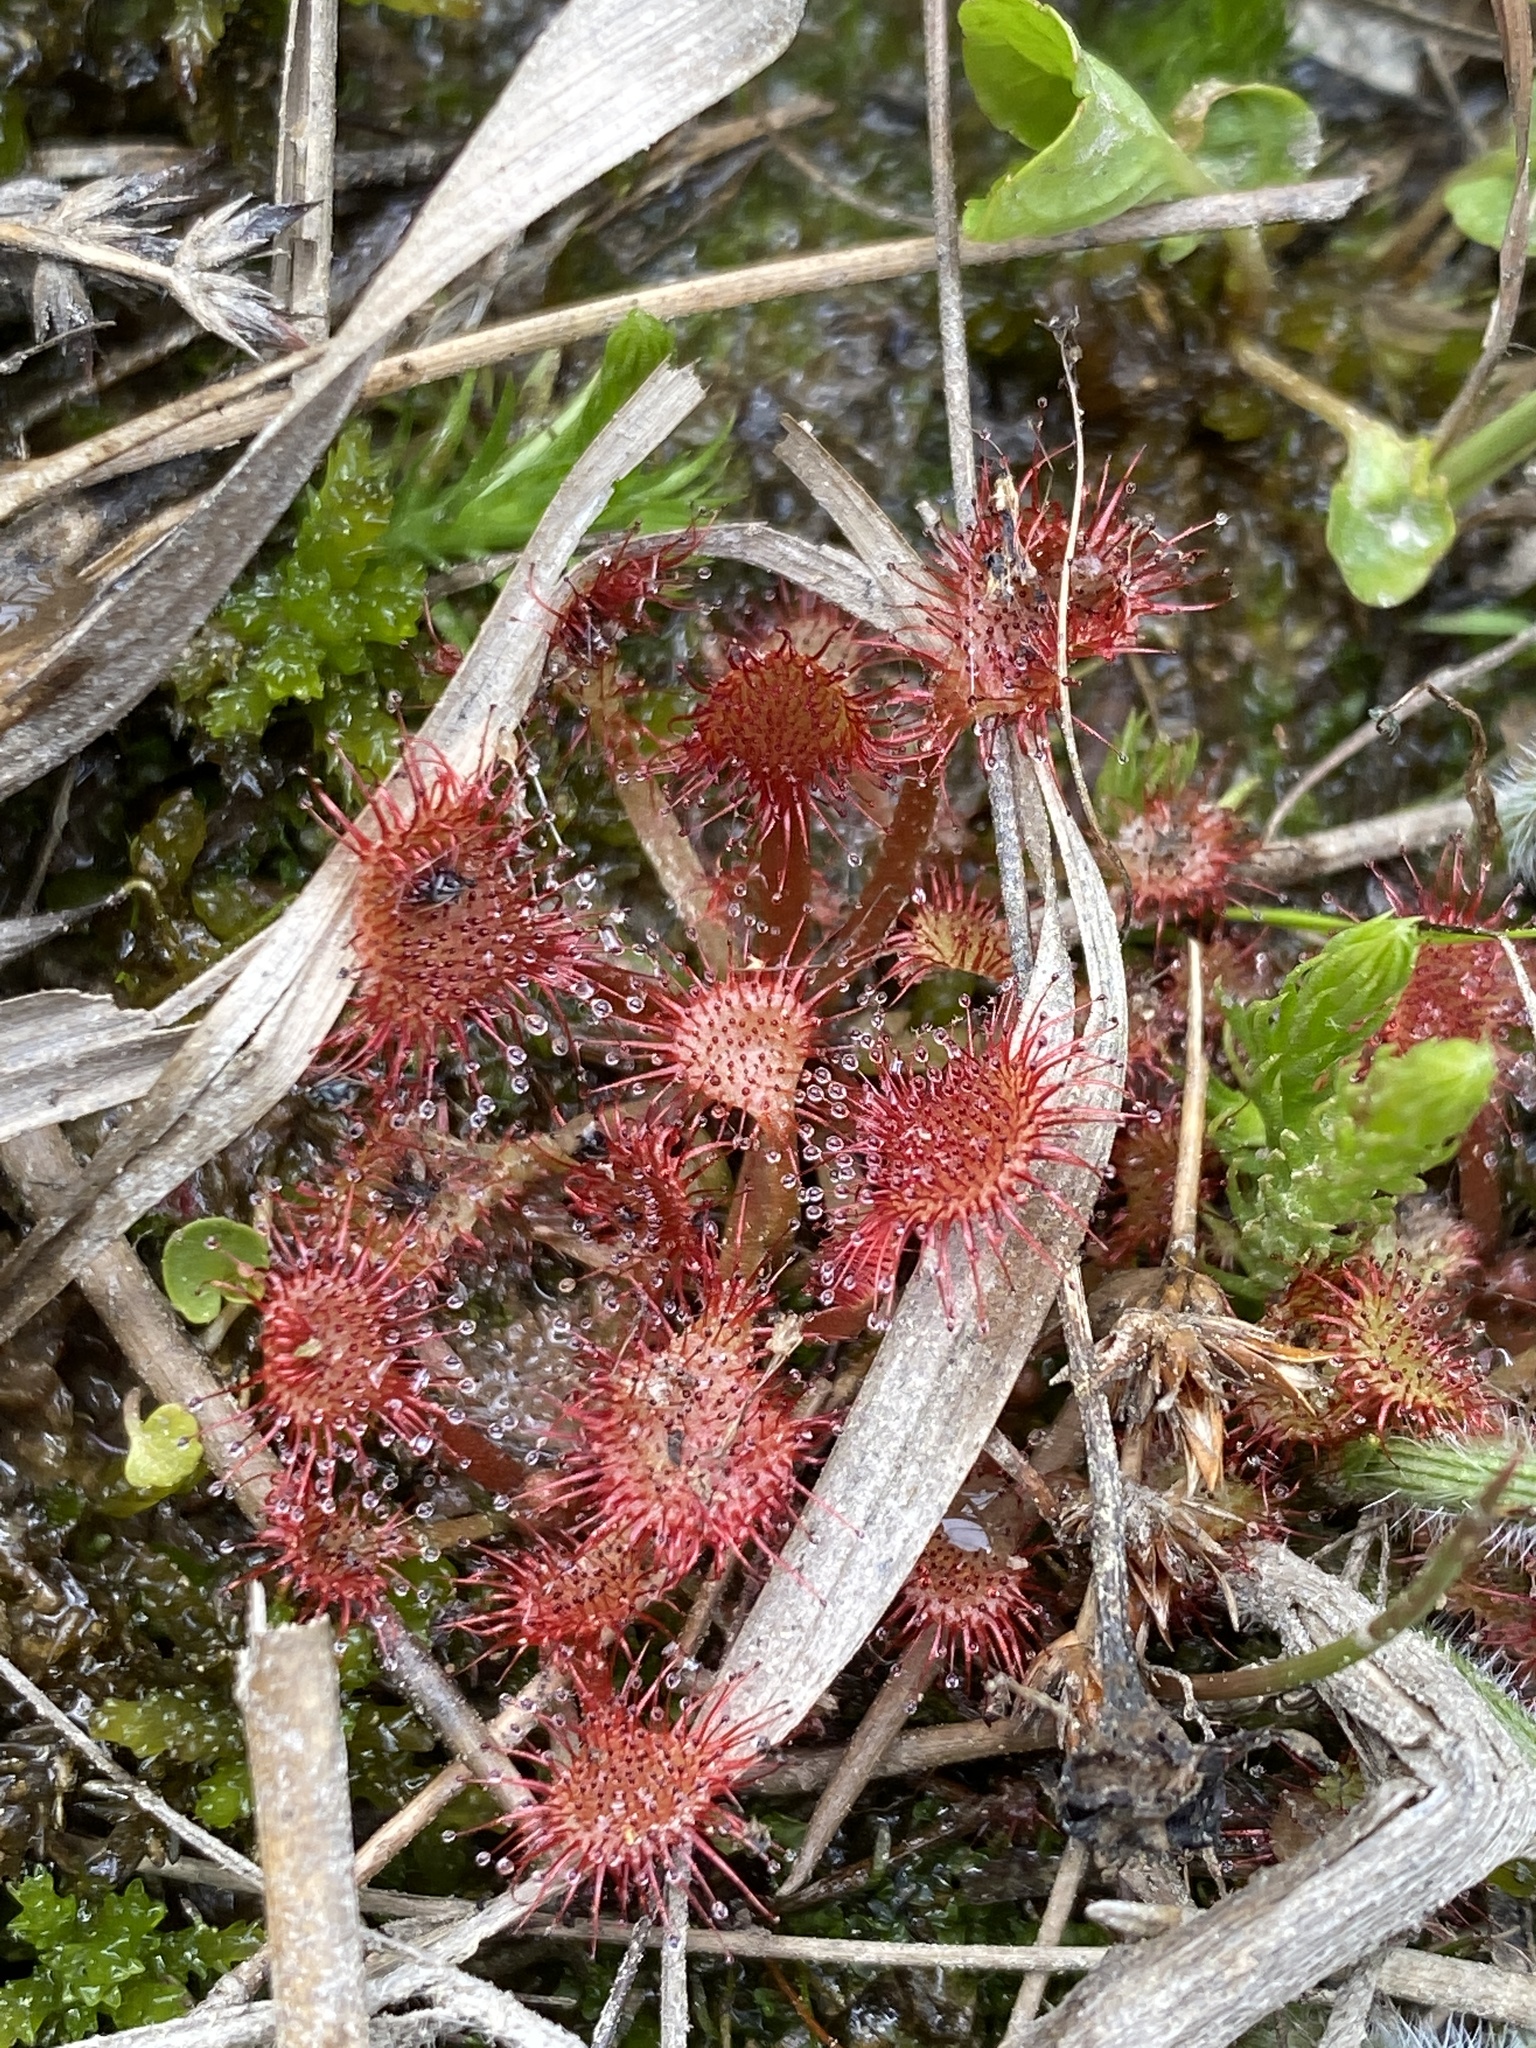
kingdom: Plantae
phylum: Tracheophyta
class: Magnoliopsida
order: Caryophyllales
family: Droseraceae
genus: Drosera
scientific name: Drosera capillaris
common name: Pink sundew
